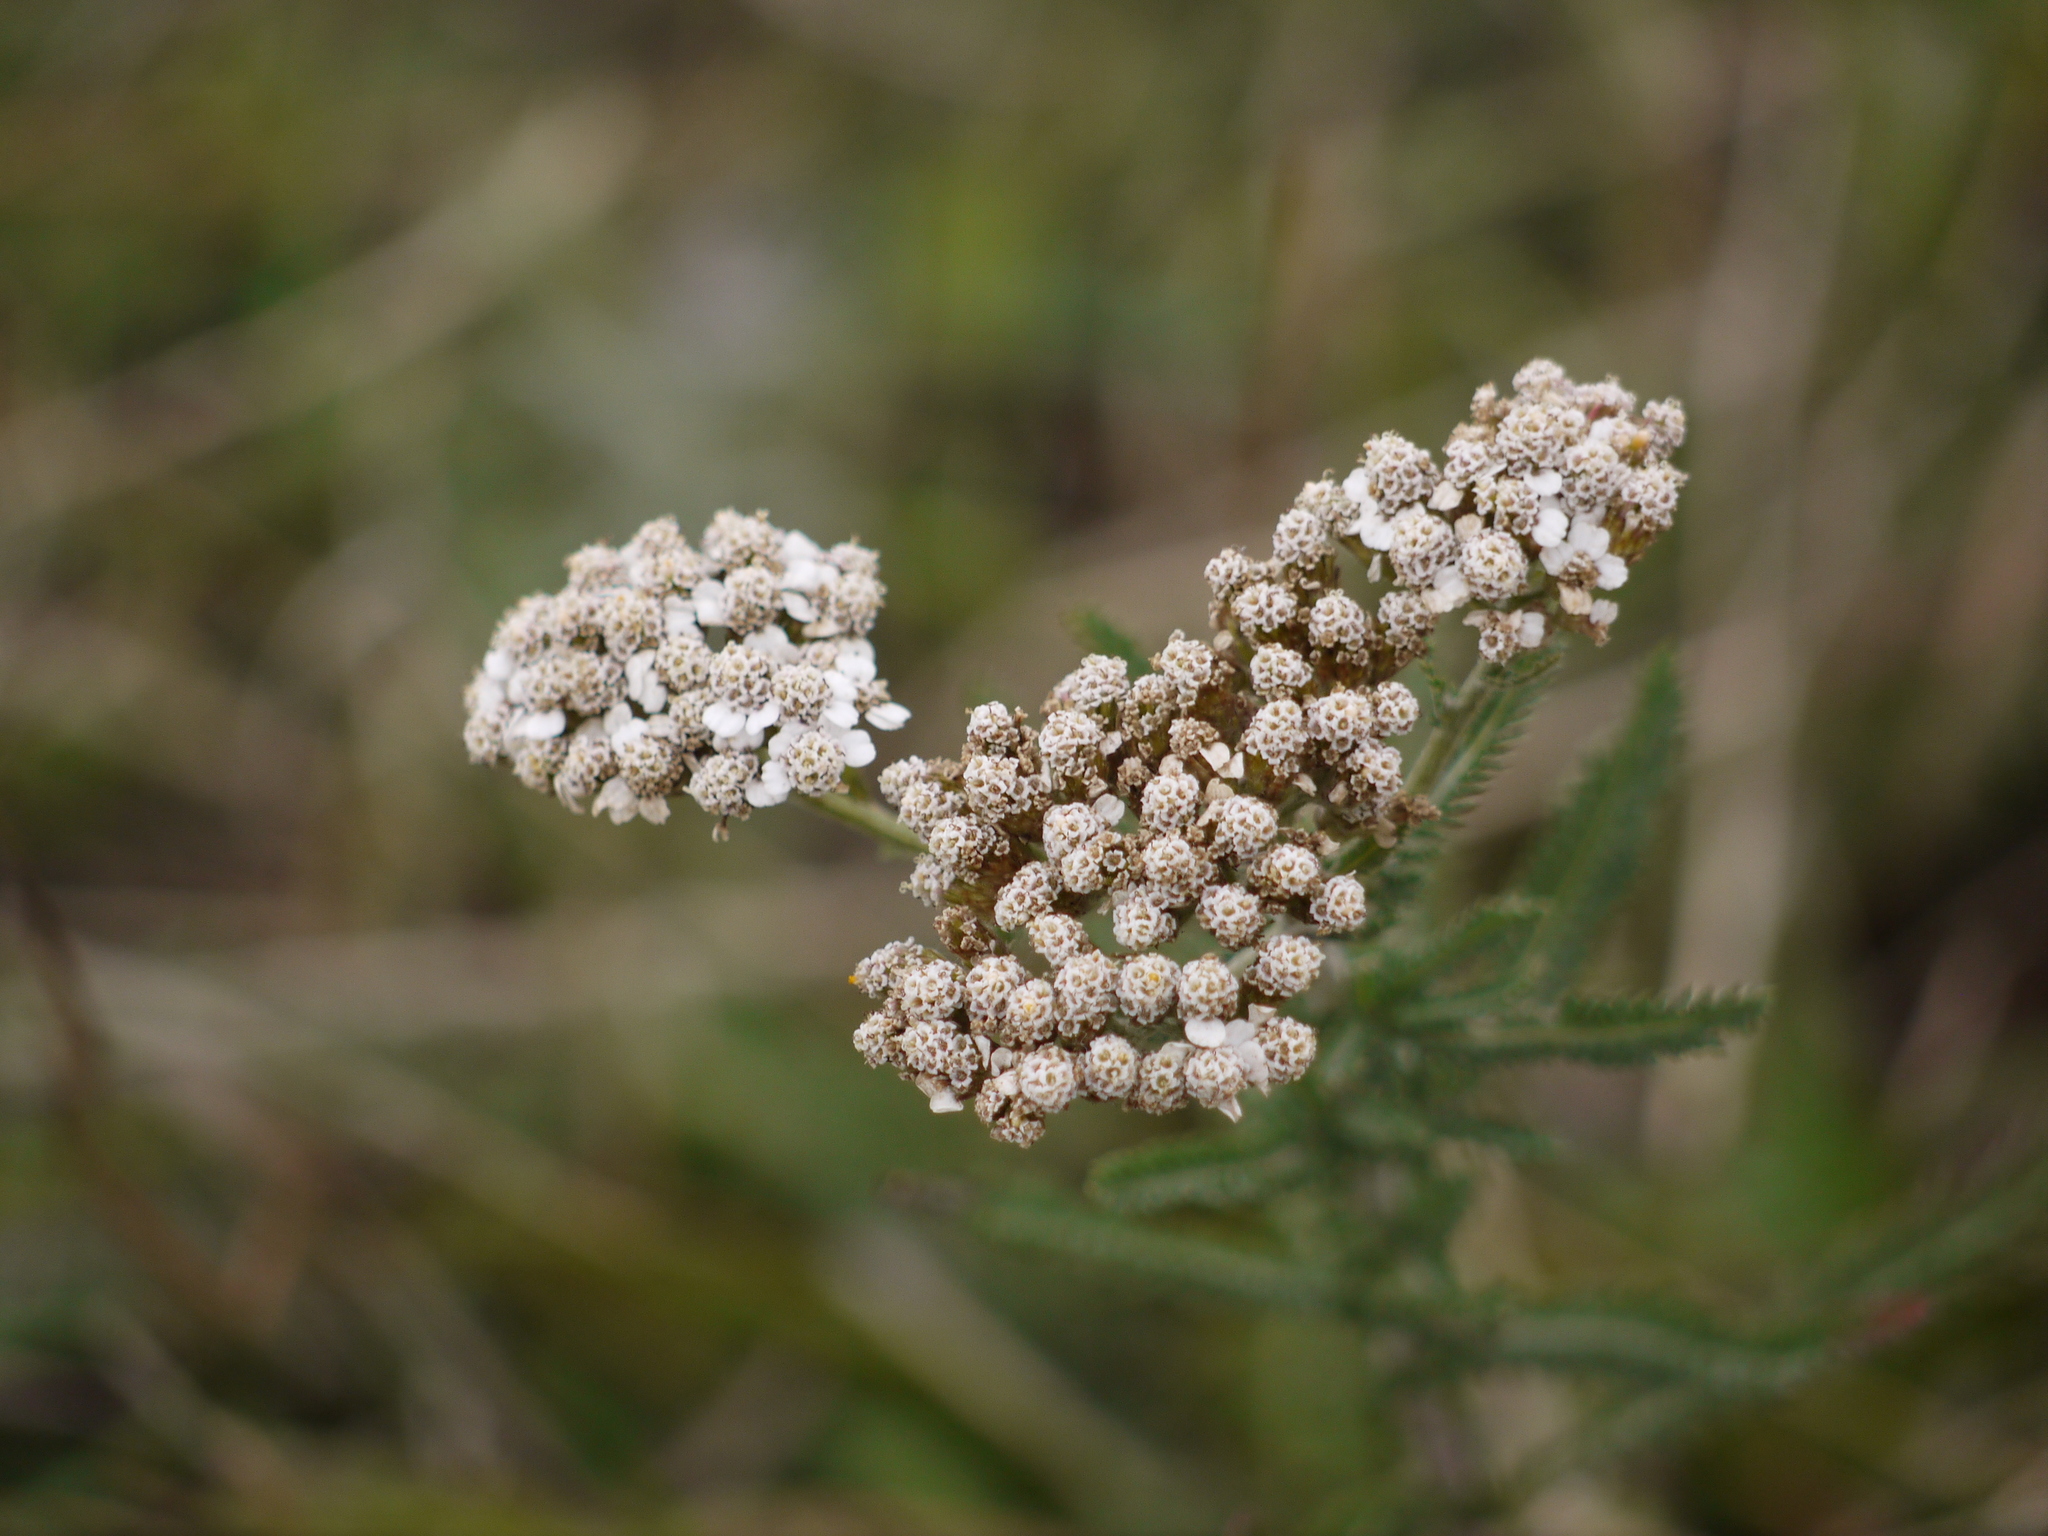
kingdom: Plantae
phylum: Tracheophyta
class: Magnoliopsida
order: Asterales
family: Asteraceae
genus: Achillea
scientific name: Achillea millefolium
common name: Yarrow
